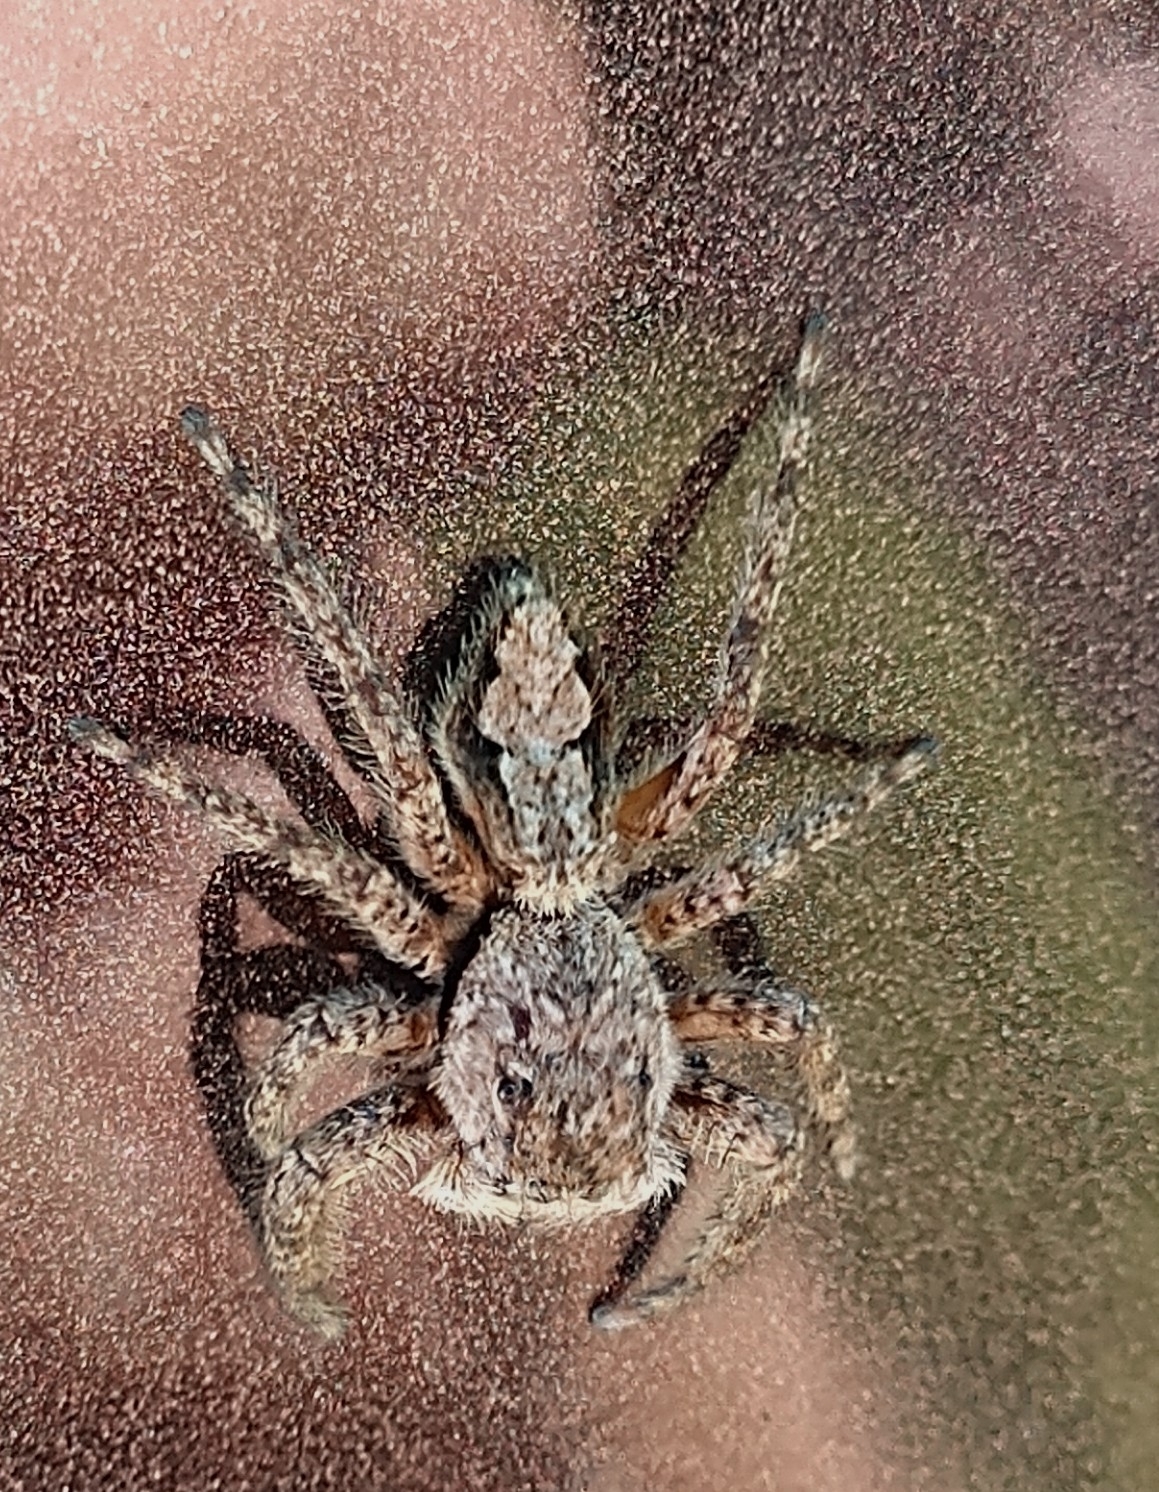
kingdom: Animalia
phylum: Arthropoda
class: Arachnida
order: Araneae
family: Salticidae
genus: Platycryptus
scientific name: Platycryptus undatus
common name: Tan jumping spider
